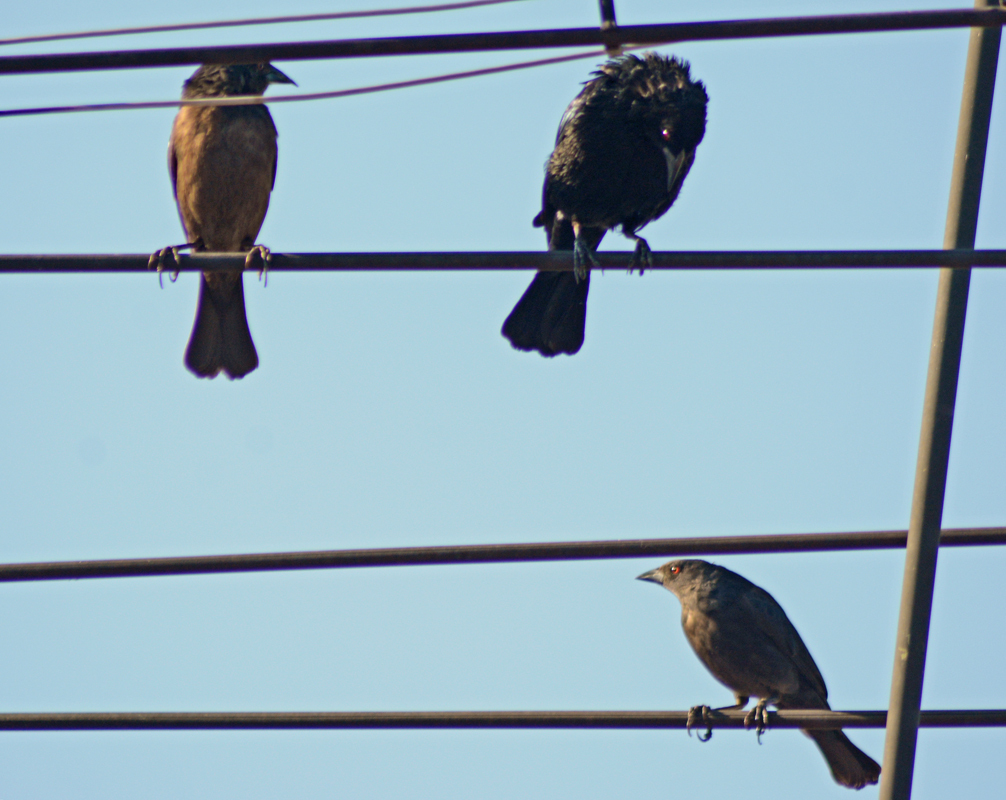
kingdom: Animalia
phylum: Chordata
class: Aves
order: Passeriformes
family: Icteridae
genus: Molothrus
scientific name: Molothrus aeneus
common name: Bronzed cowbird
